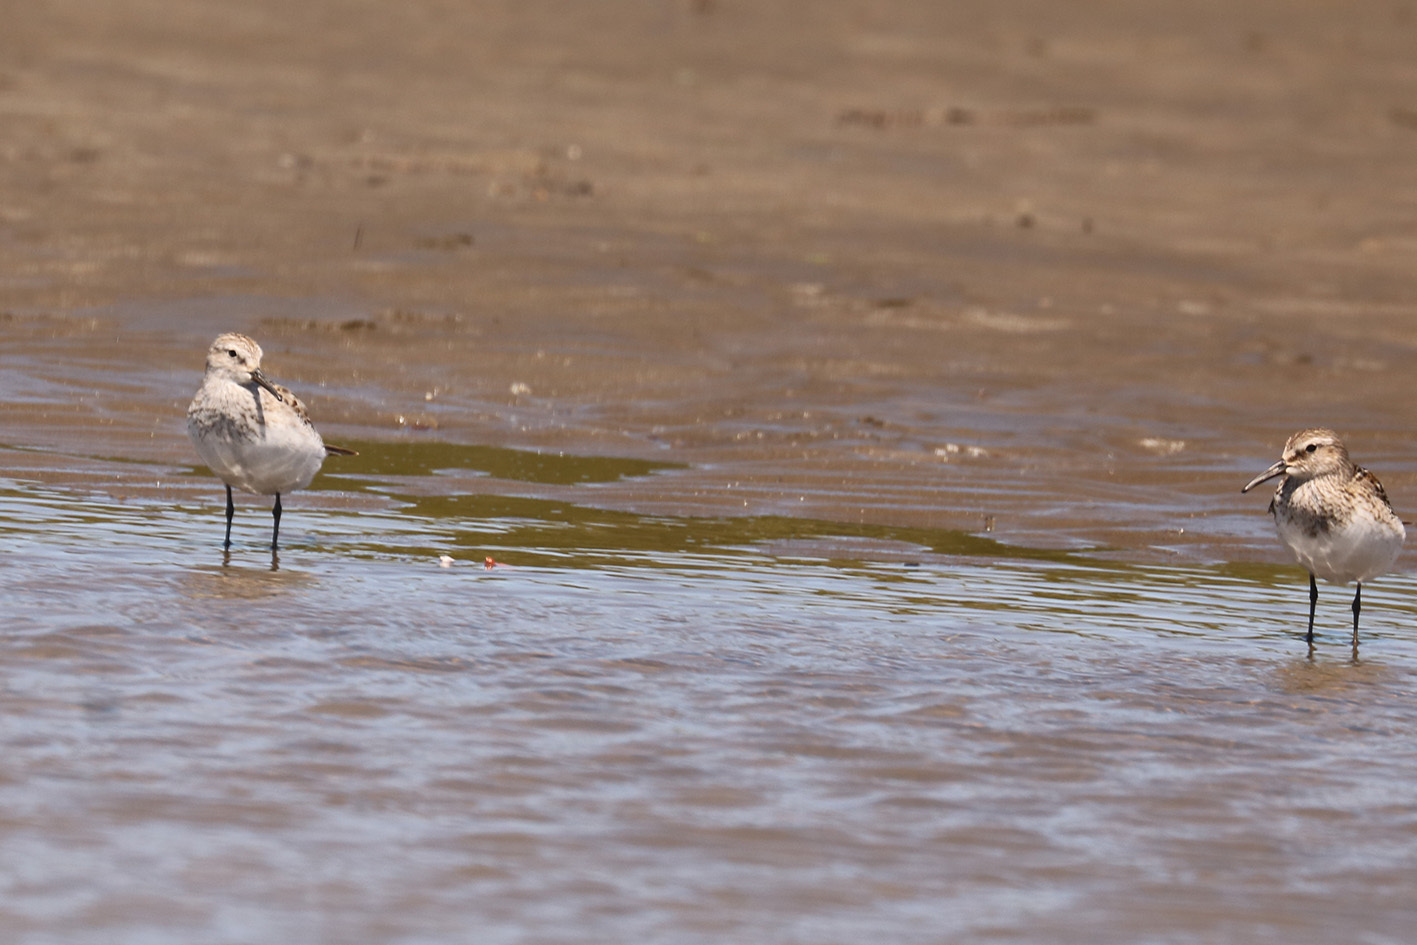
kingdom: Animalia
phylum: Chordata
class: Aves
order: Charadriiformes
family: Scolopacidae
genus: Calidris
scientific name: Calidris fuscicollis
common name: White-rumped sandpiper
